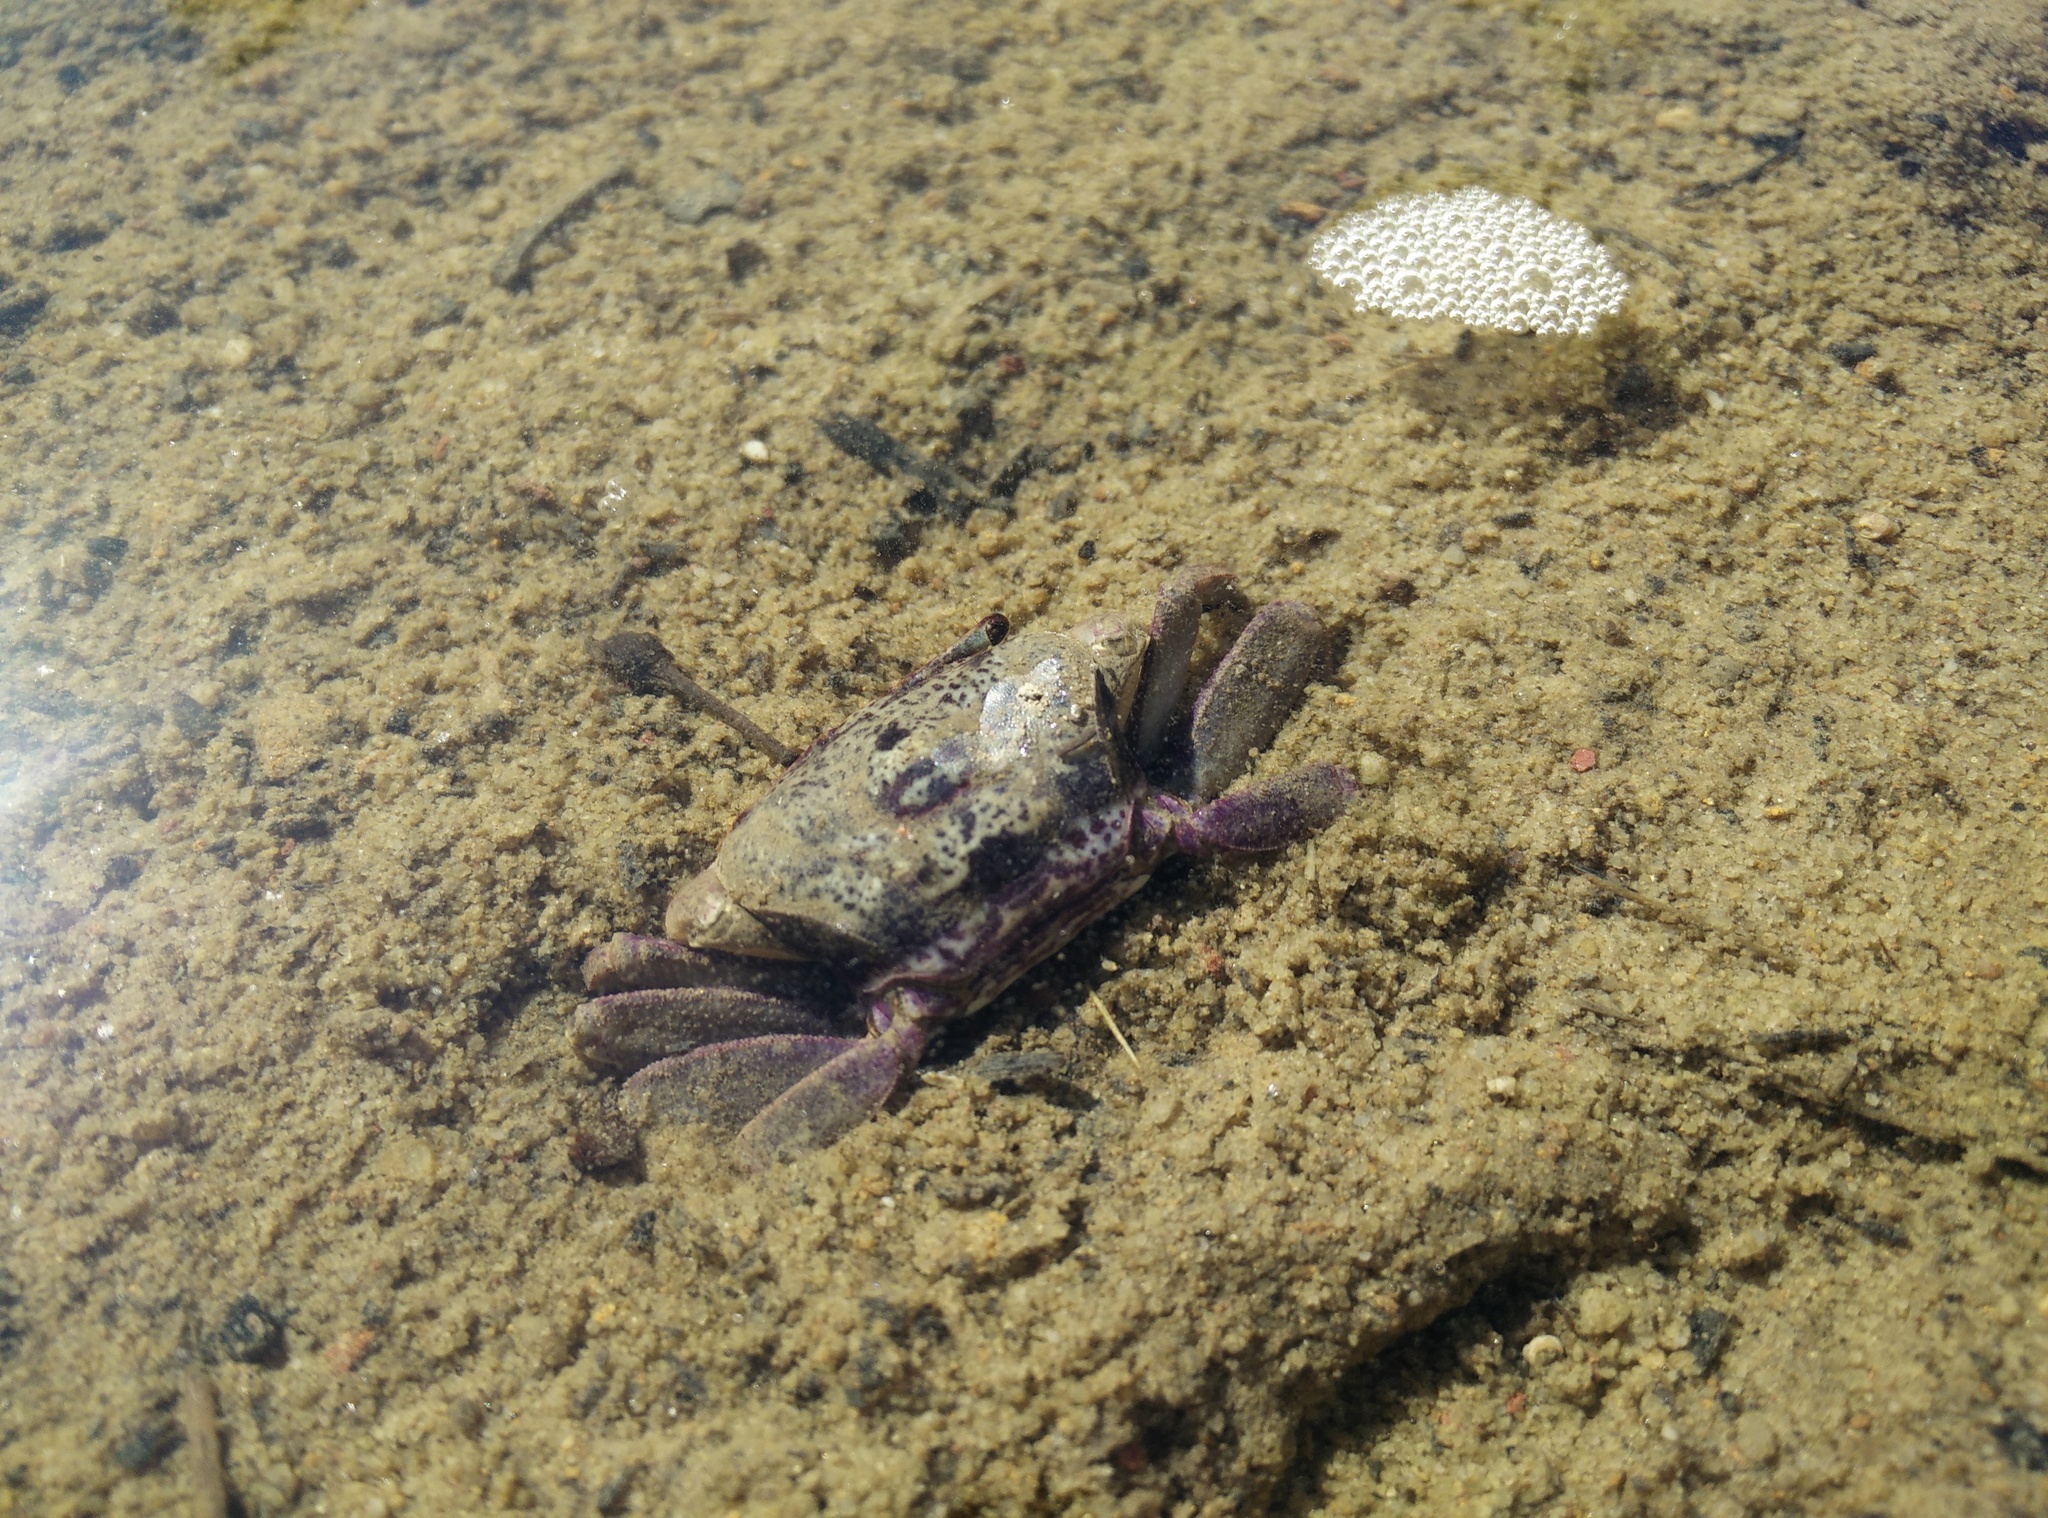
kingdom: Animalia
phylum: Arthropoda
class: Malacostraca
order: Decapoda
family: Heloeciidae
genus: Heloecius
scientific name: Heloecius cordiformis
